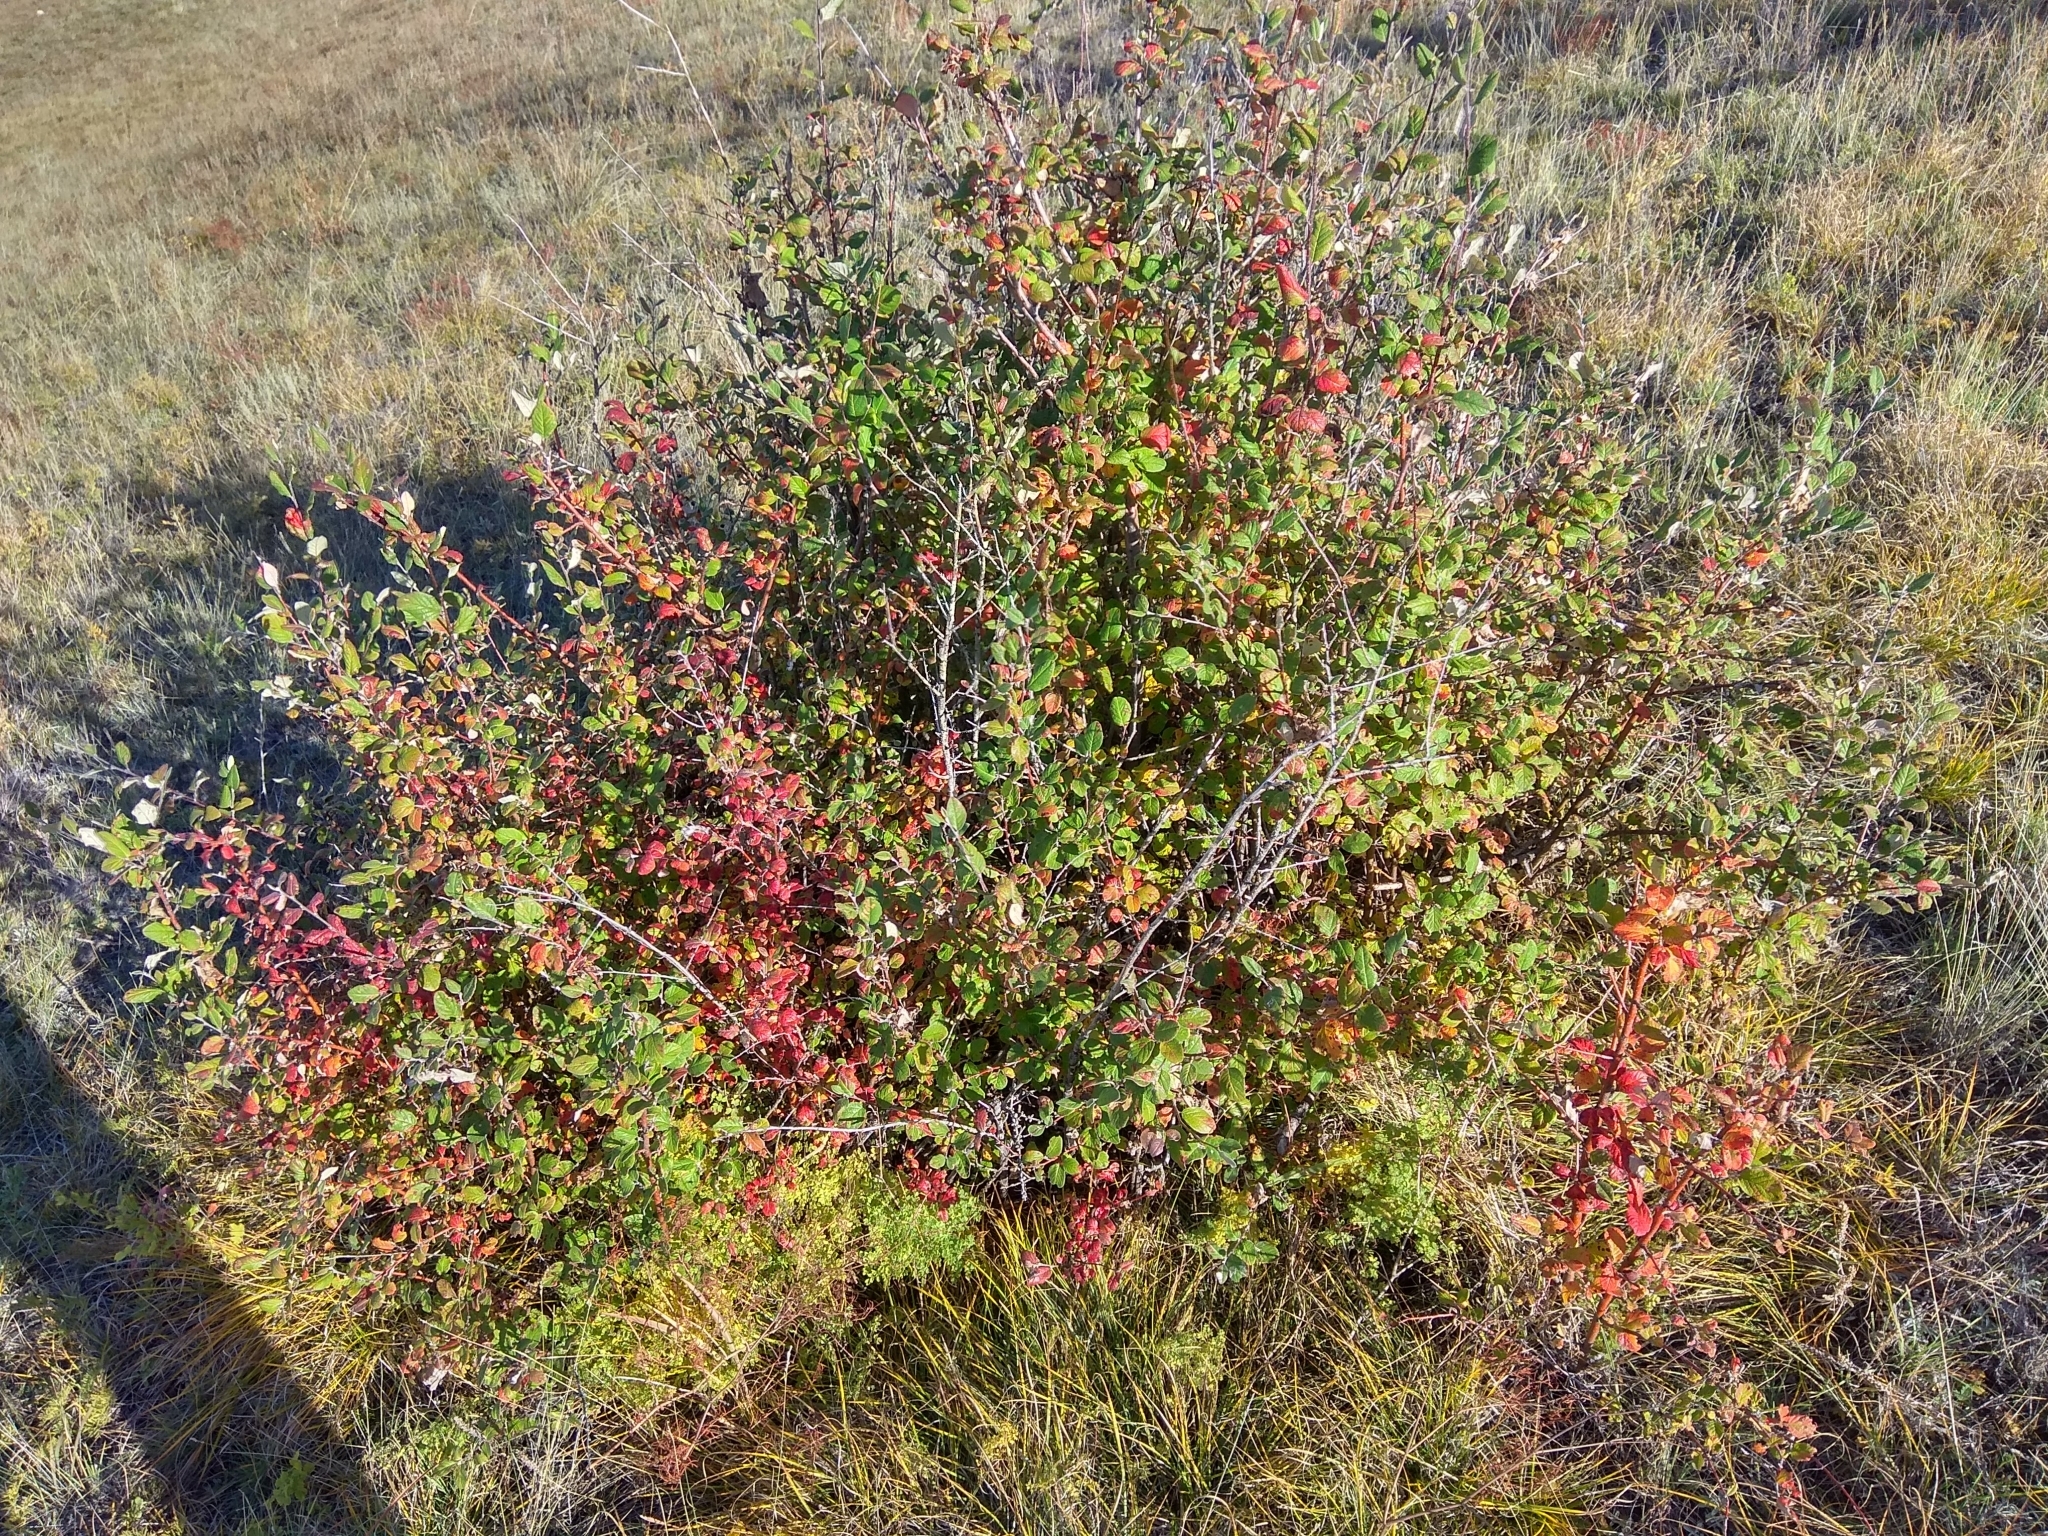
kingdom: Plantae
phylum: Tracheophyta
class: Magnoliopsida
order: Rosales
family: Rosaceae
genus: Cotoneaster
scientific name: Cotoneaster melanocarpus
